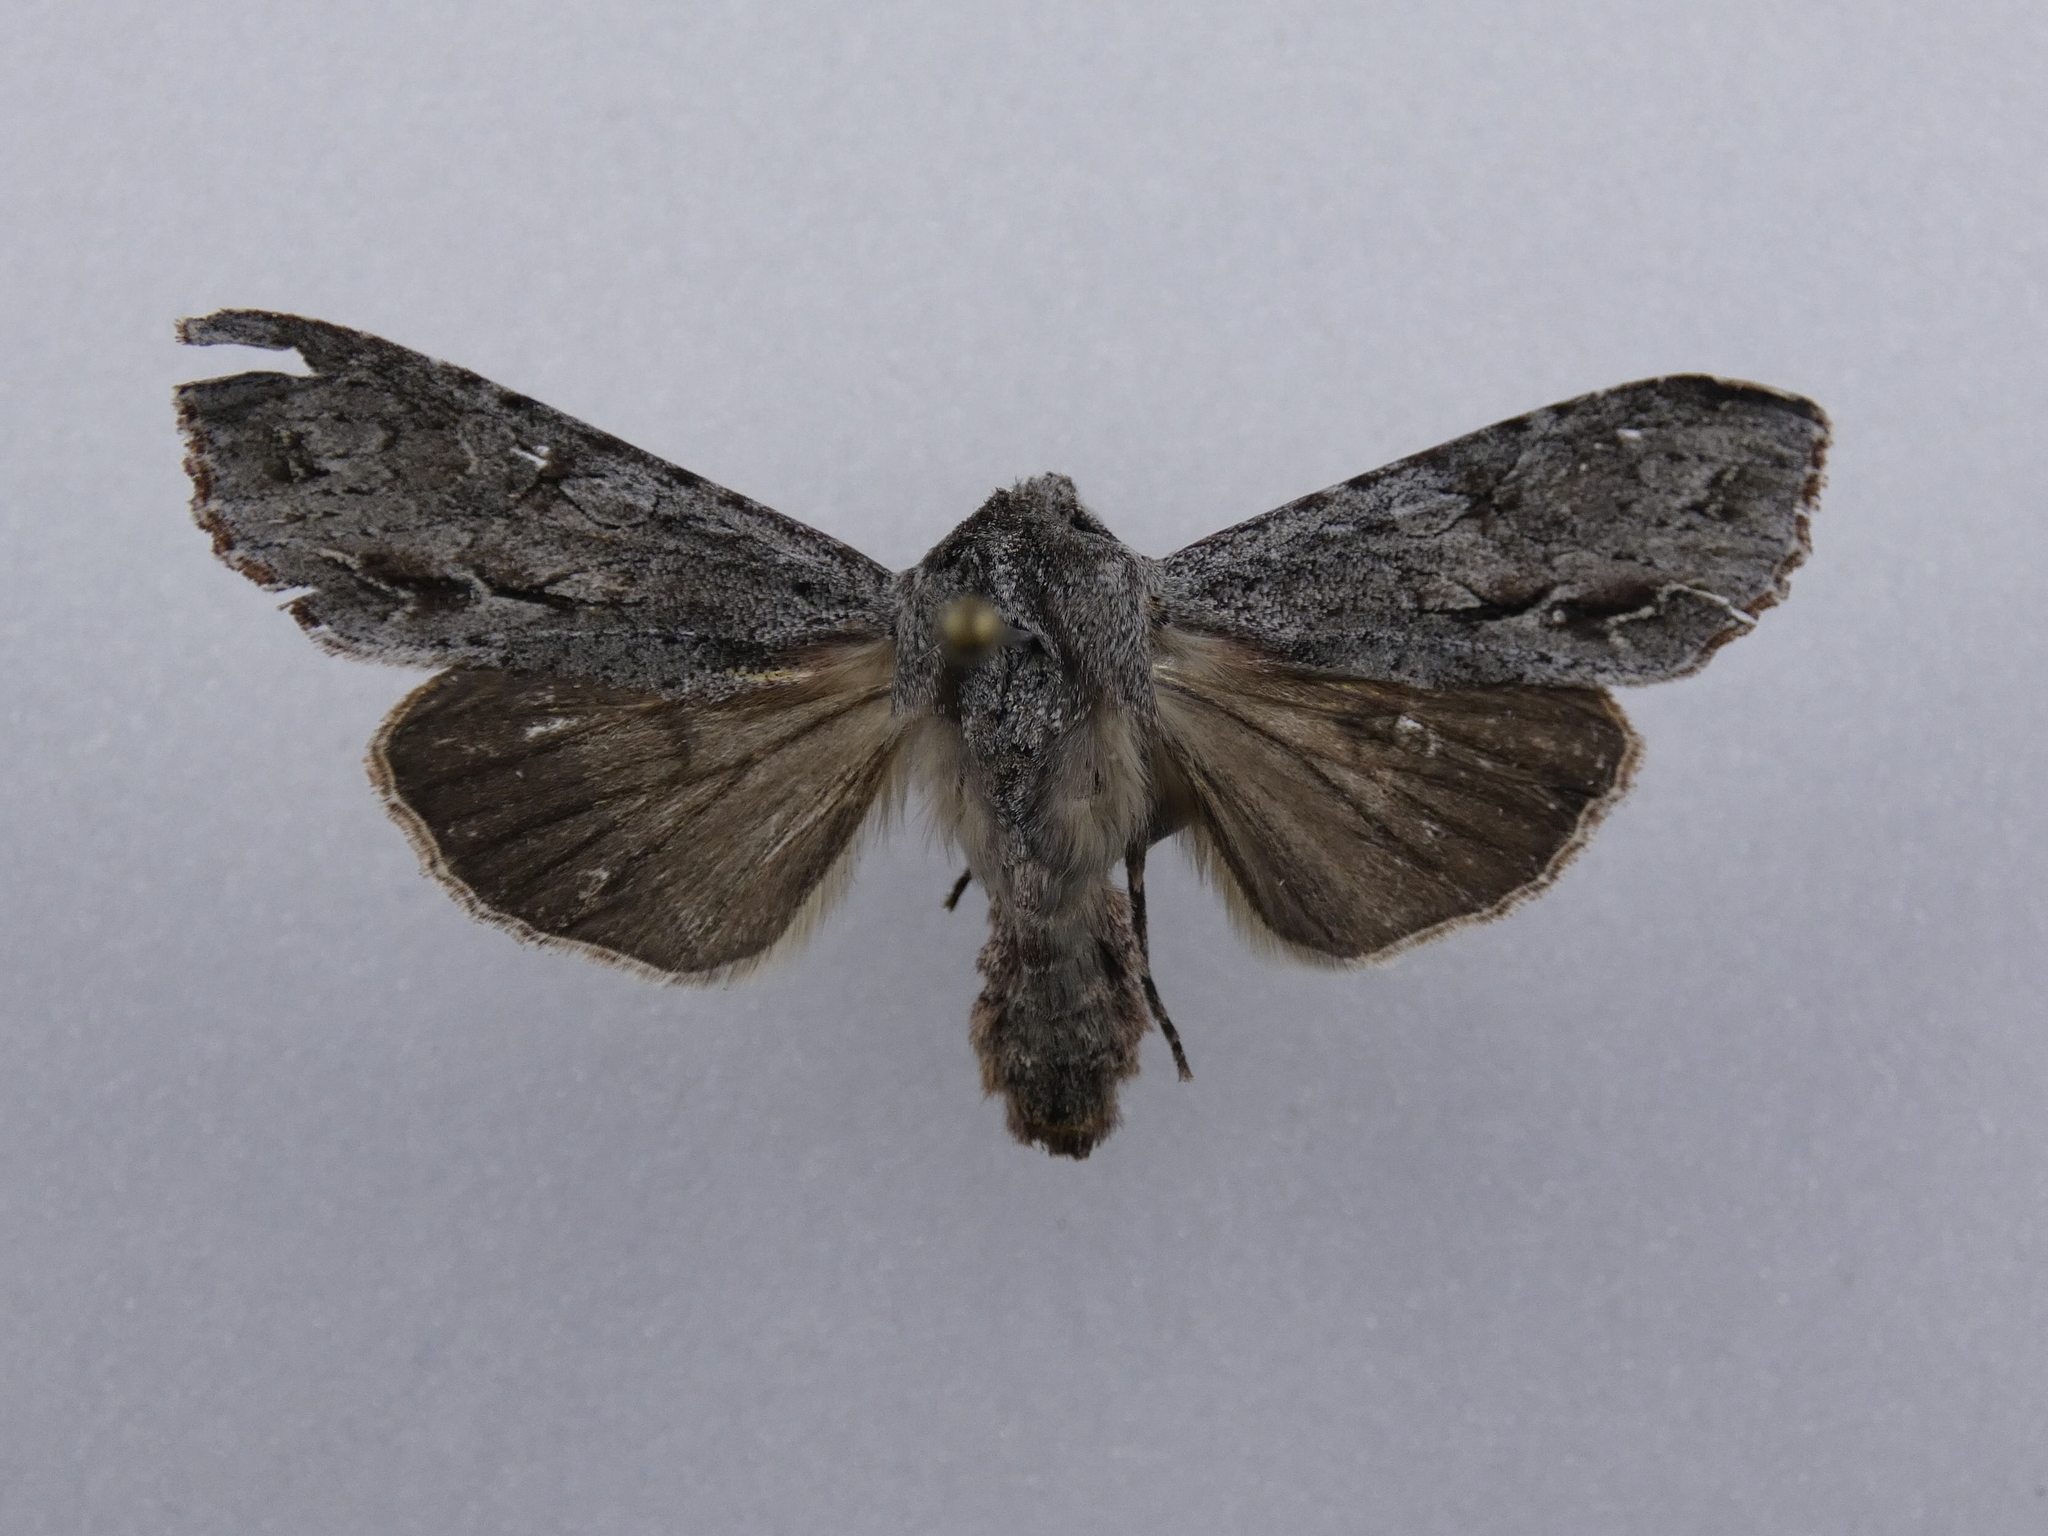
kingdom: Animalia
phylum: Arthropoda
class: Insecta
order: Lepidoptera
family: Noctuidae
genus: Ichneutica
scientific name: Ichneutica
